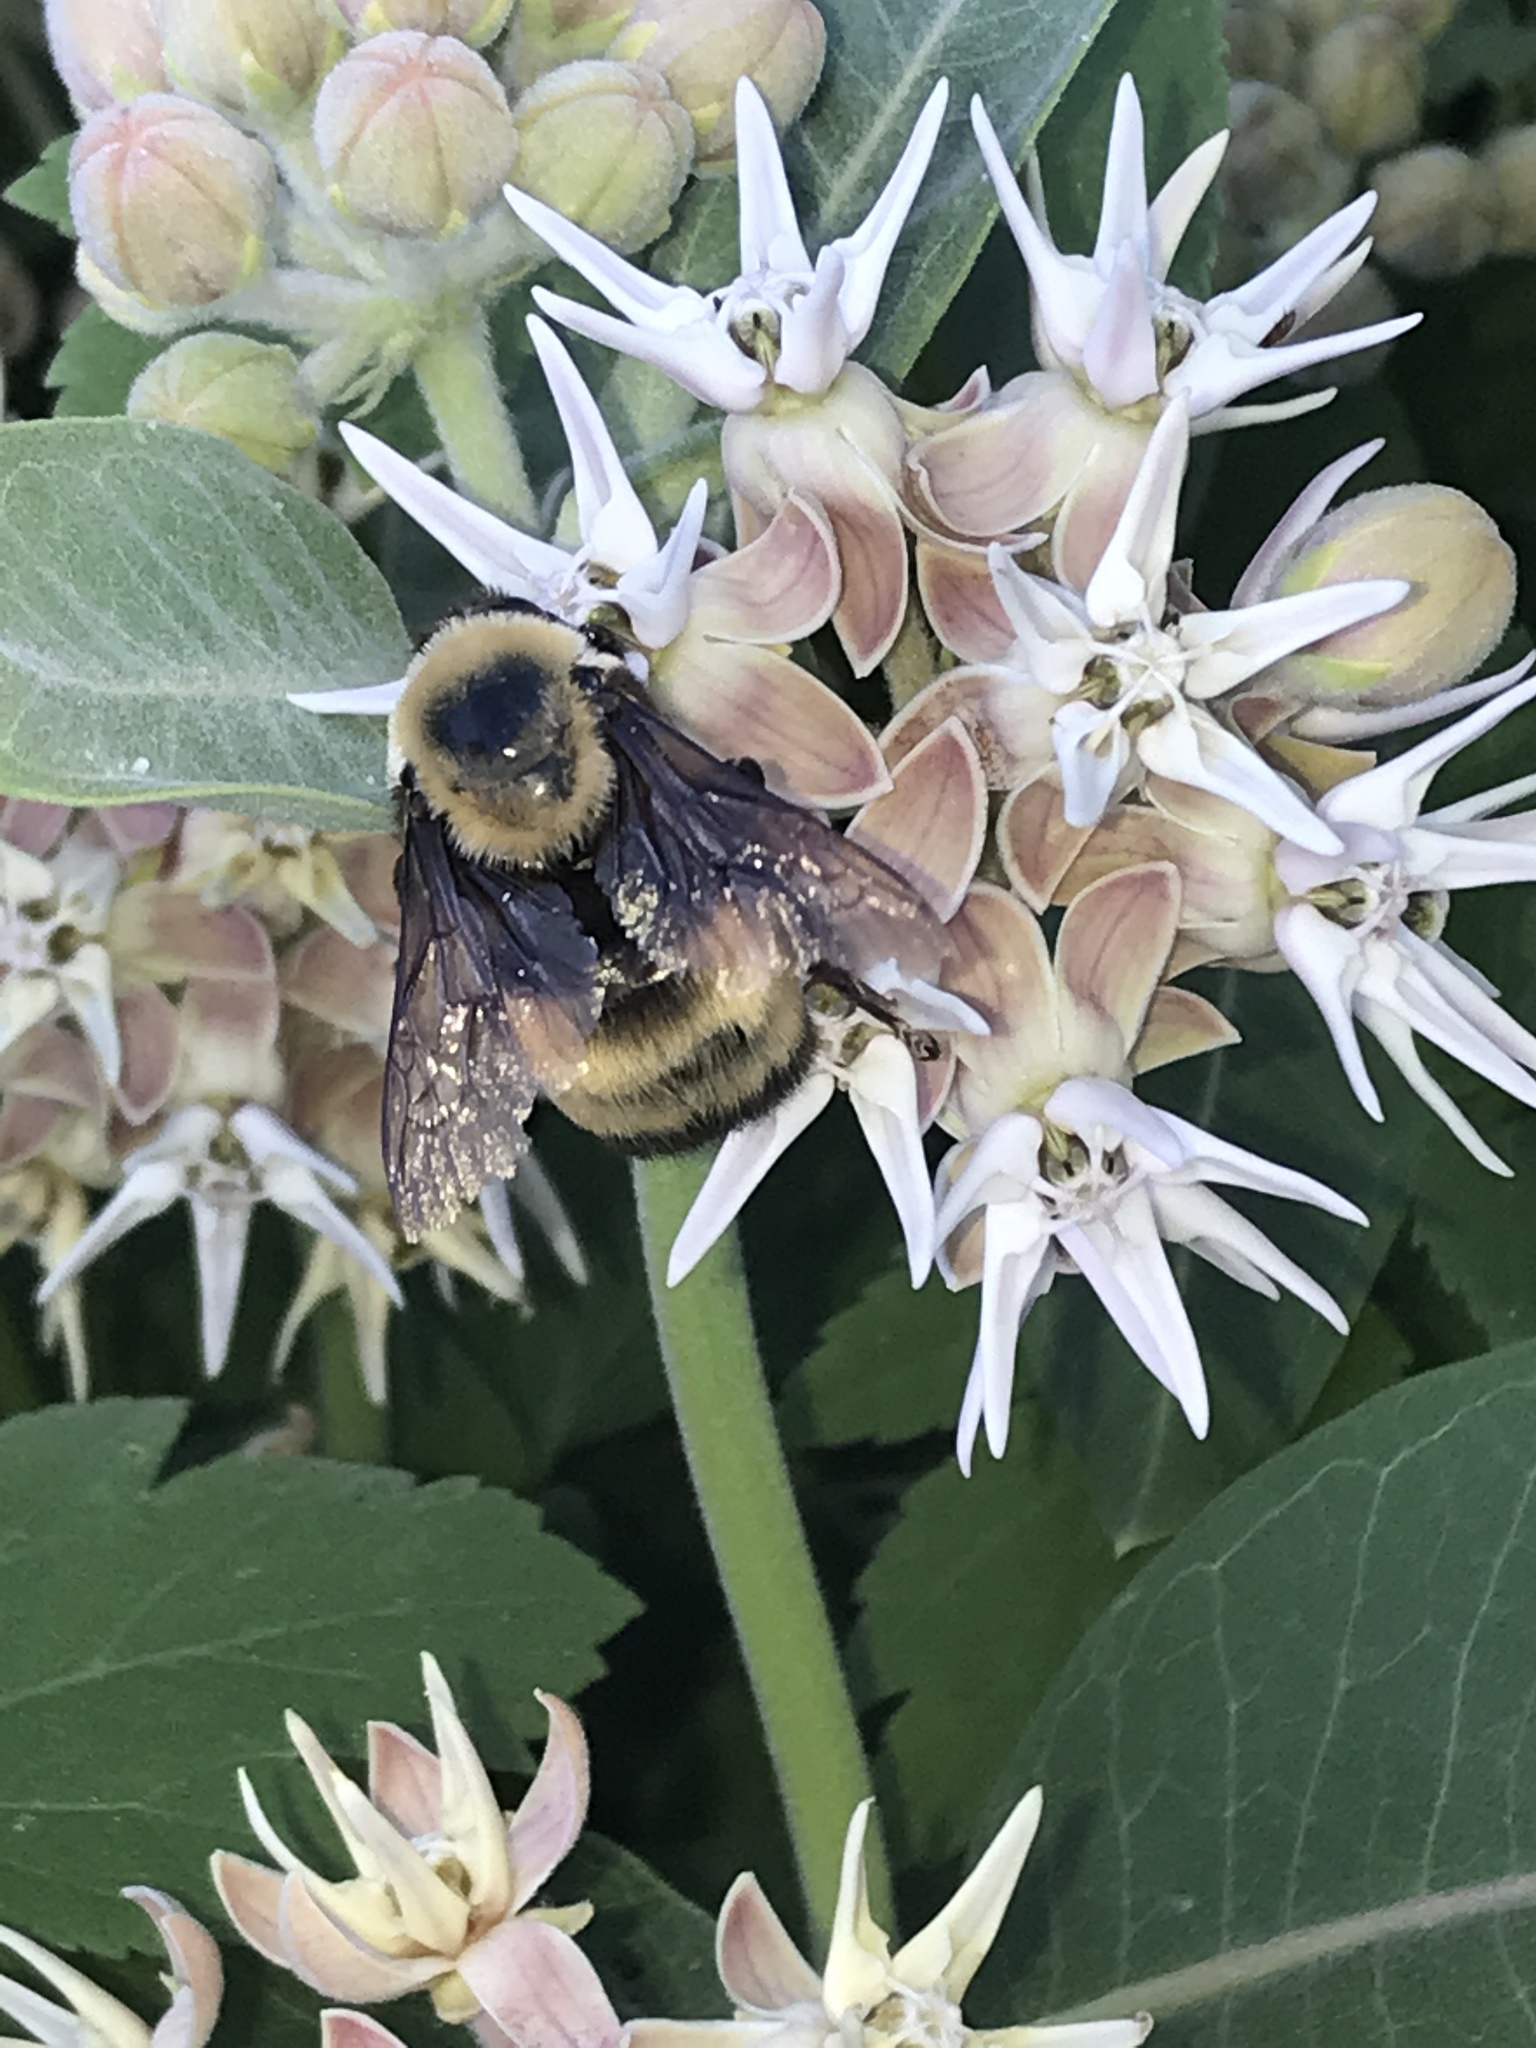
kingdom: Animalia
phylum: Arthropoda
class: Insecta
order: Hymenoptera
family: Apidae
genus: Bombus
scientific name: Bombus nevadensis
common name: Nevada bumble bee
